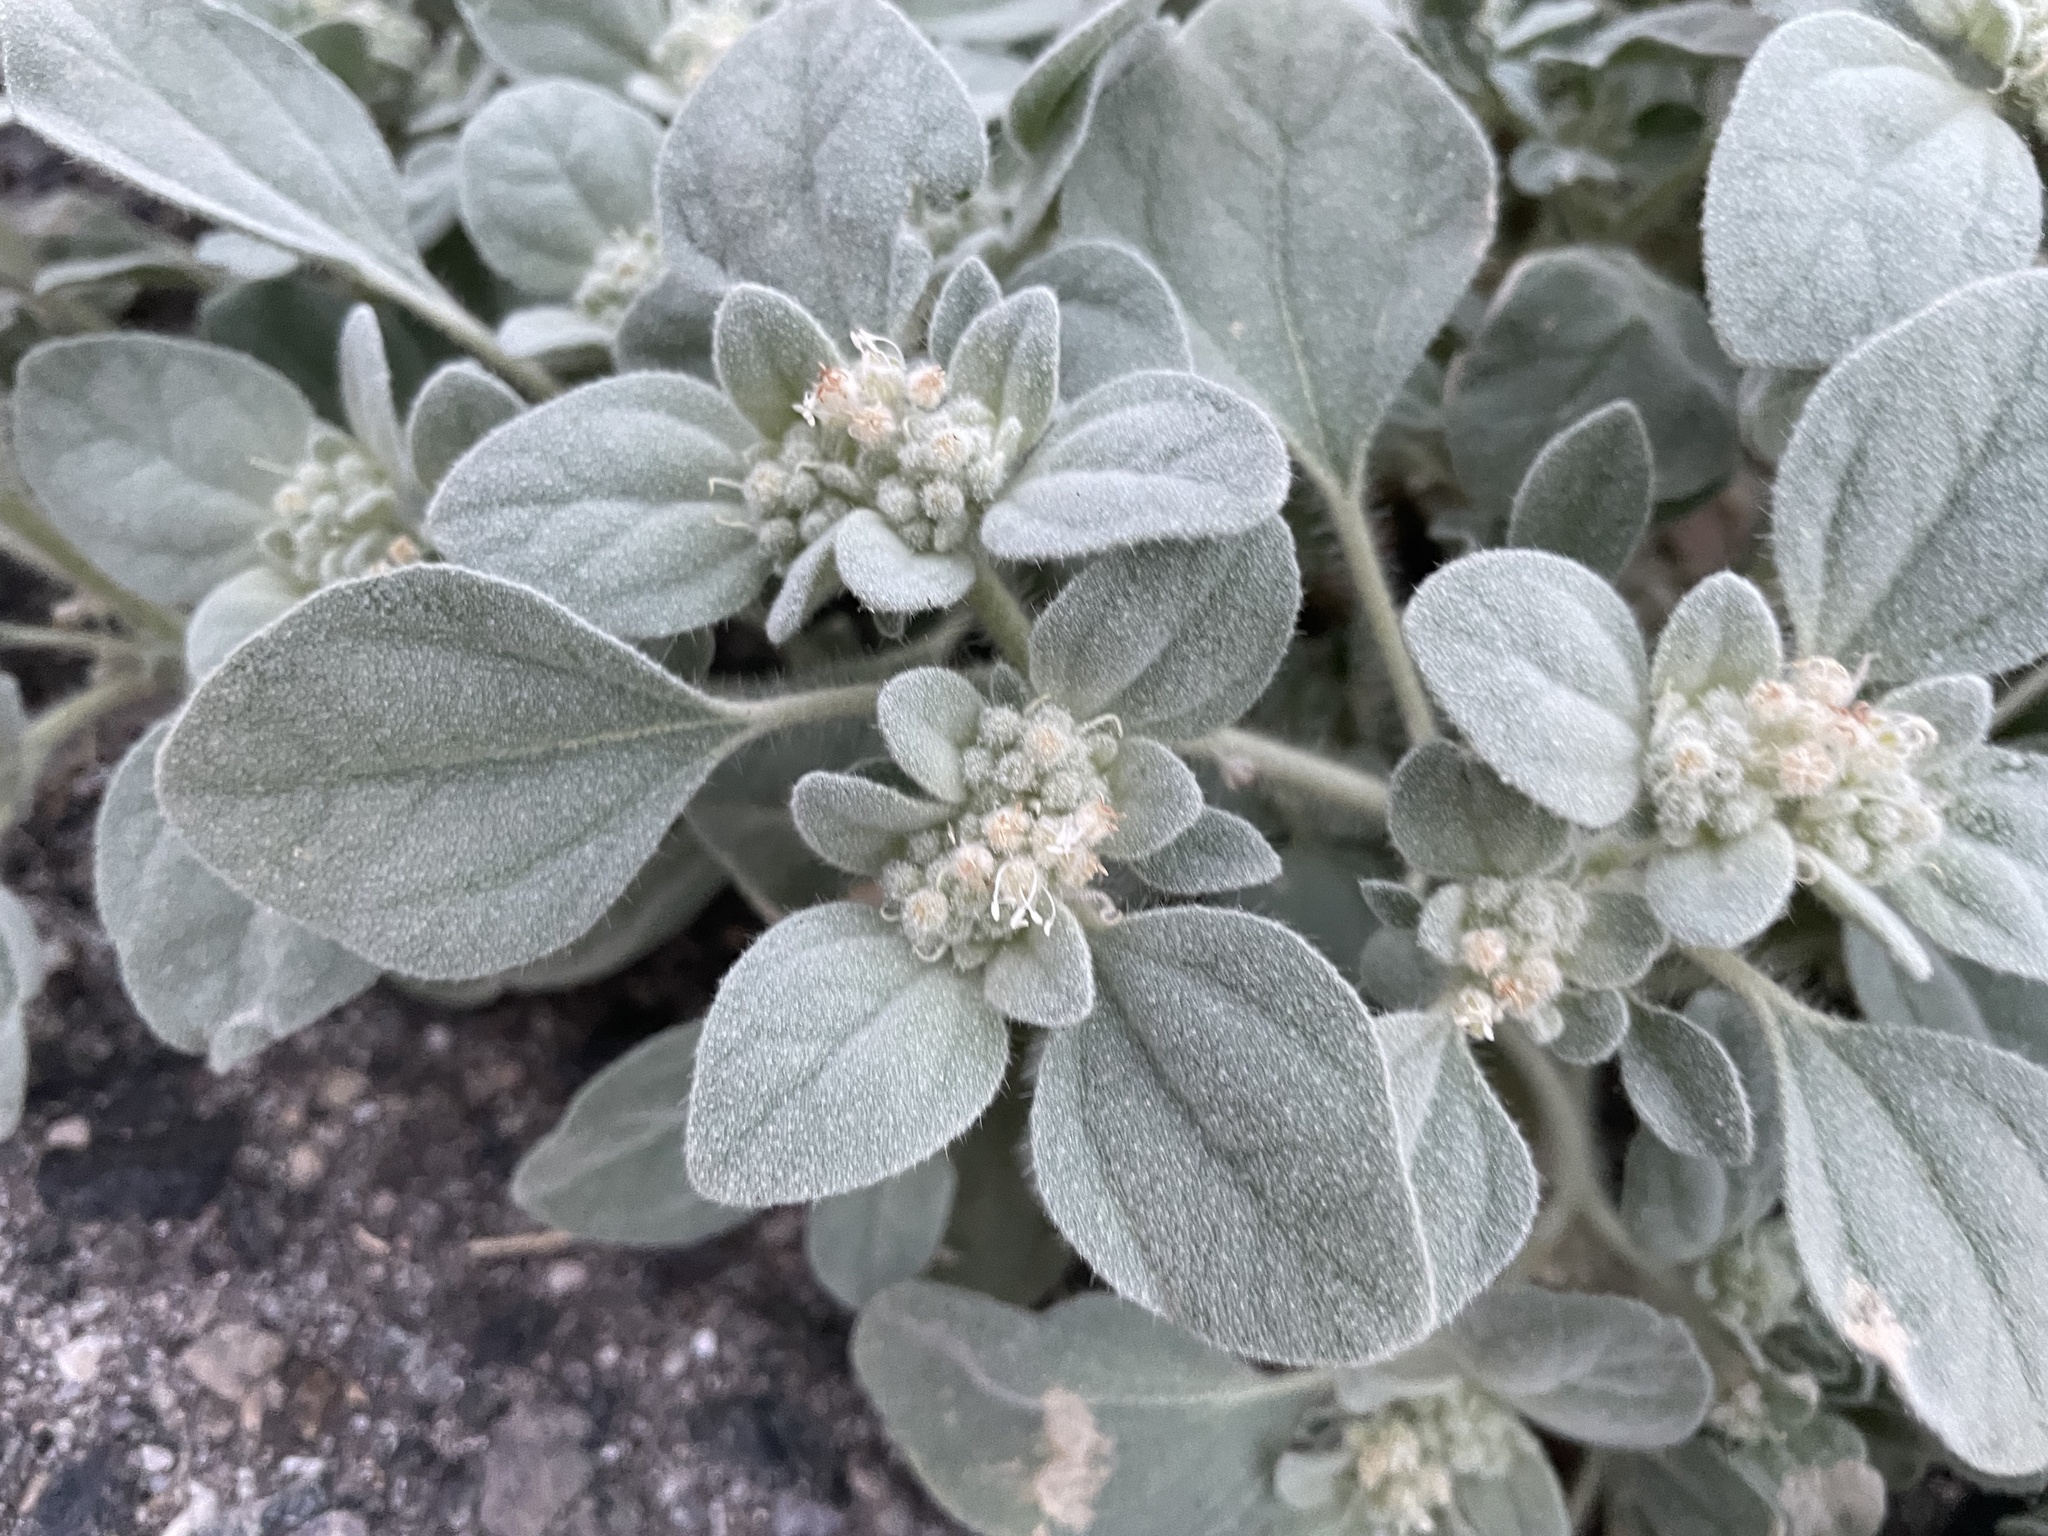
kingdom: Plantae
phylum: Tracheophyta
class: Magnoliopsida
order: Malpighiales
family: Euphorbiaceae
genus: Croton
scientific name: Croton setiger
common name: Dove weed
